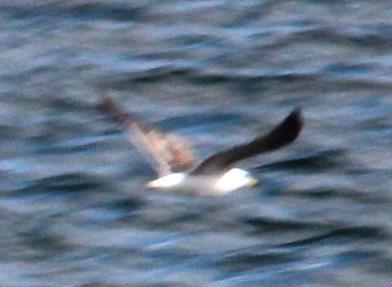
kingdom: Animalia
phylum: Chordata
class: Aves
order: Charadriiformes
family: Laridae
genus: Larus
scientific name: Larus dominicanus
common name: Kelp gull
